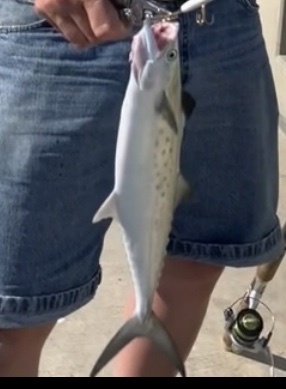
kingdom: Animalia
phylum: Chordata
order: Perciformes
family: Scombridae
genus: Scomberomorus
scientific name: Scomberomorus maculatus
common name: Spanish mackerel
